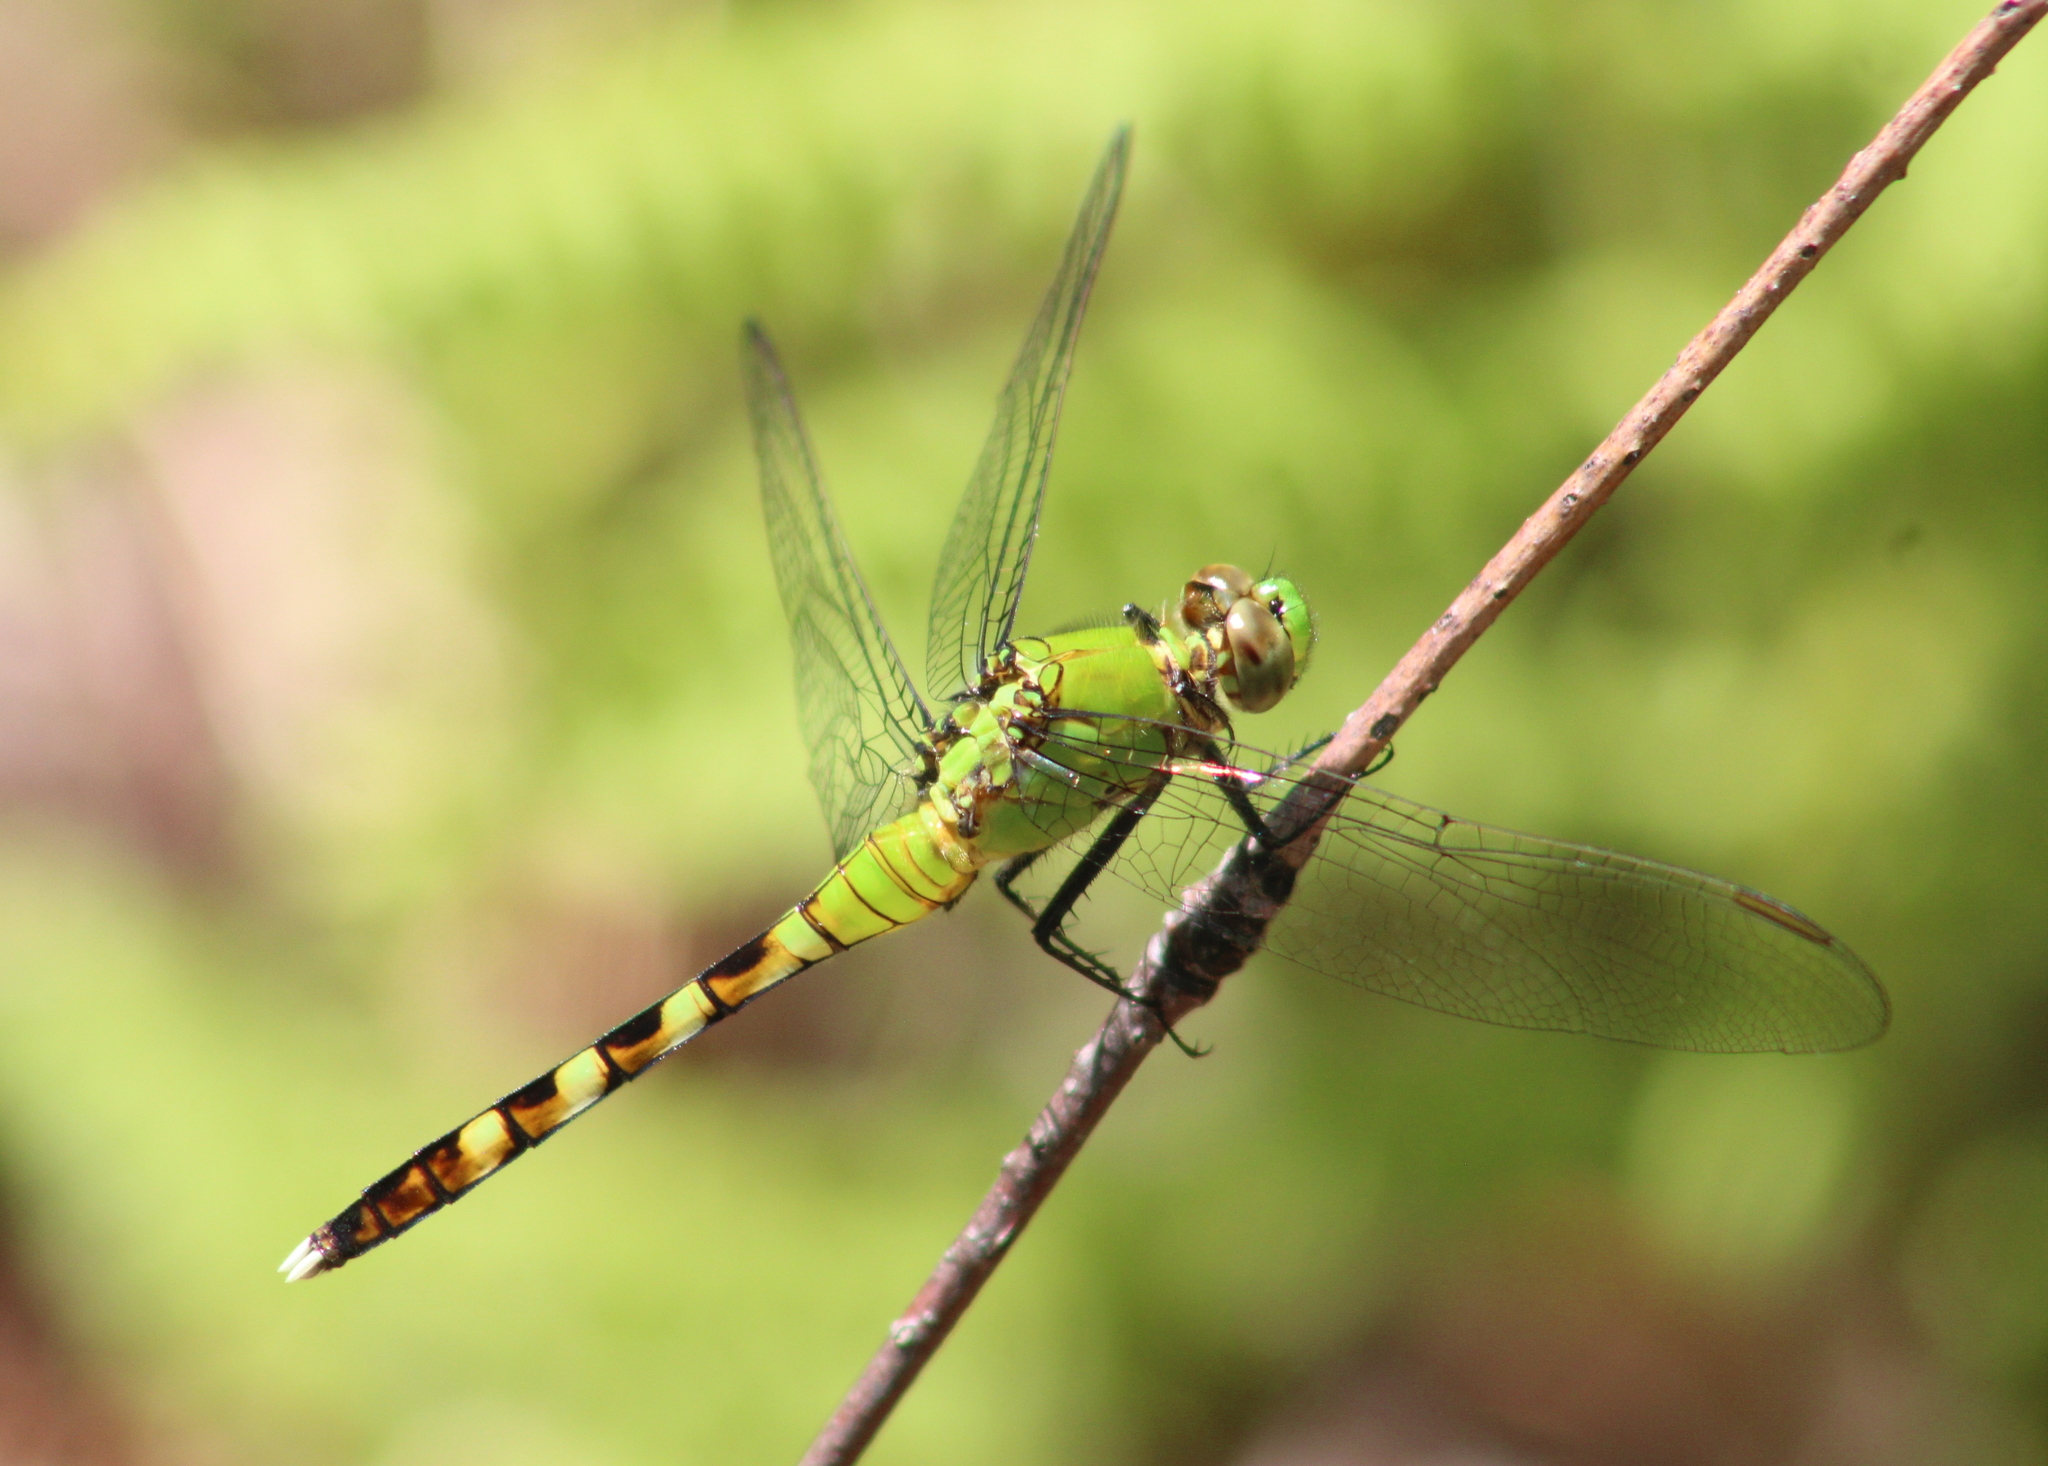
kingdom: Animalia
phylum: Arthropoda
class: Insecta
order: Odonata
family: Libellulidae
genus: Erythemis
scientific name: Erythemis simplicicollis
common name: Eastern pondhawk
